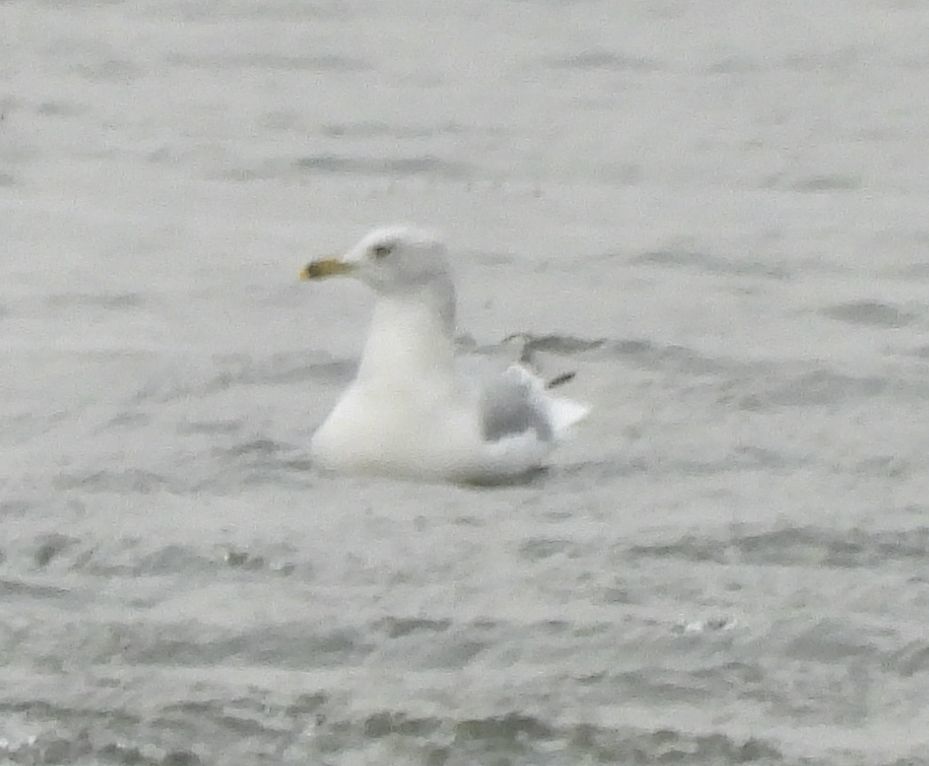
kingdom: Animalia
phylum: Chordata
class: Aves
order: Charadriiformes
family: Laridae
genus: Larus
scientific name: Larus delawarensis
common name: Ring-billed gull
